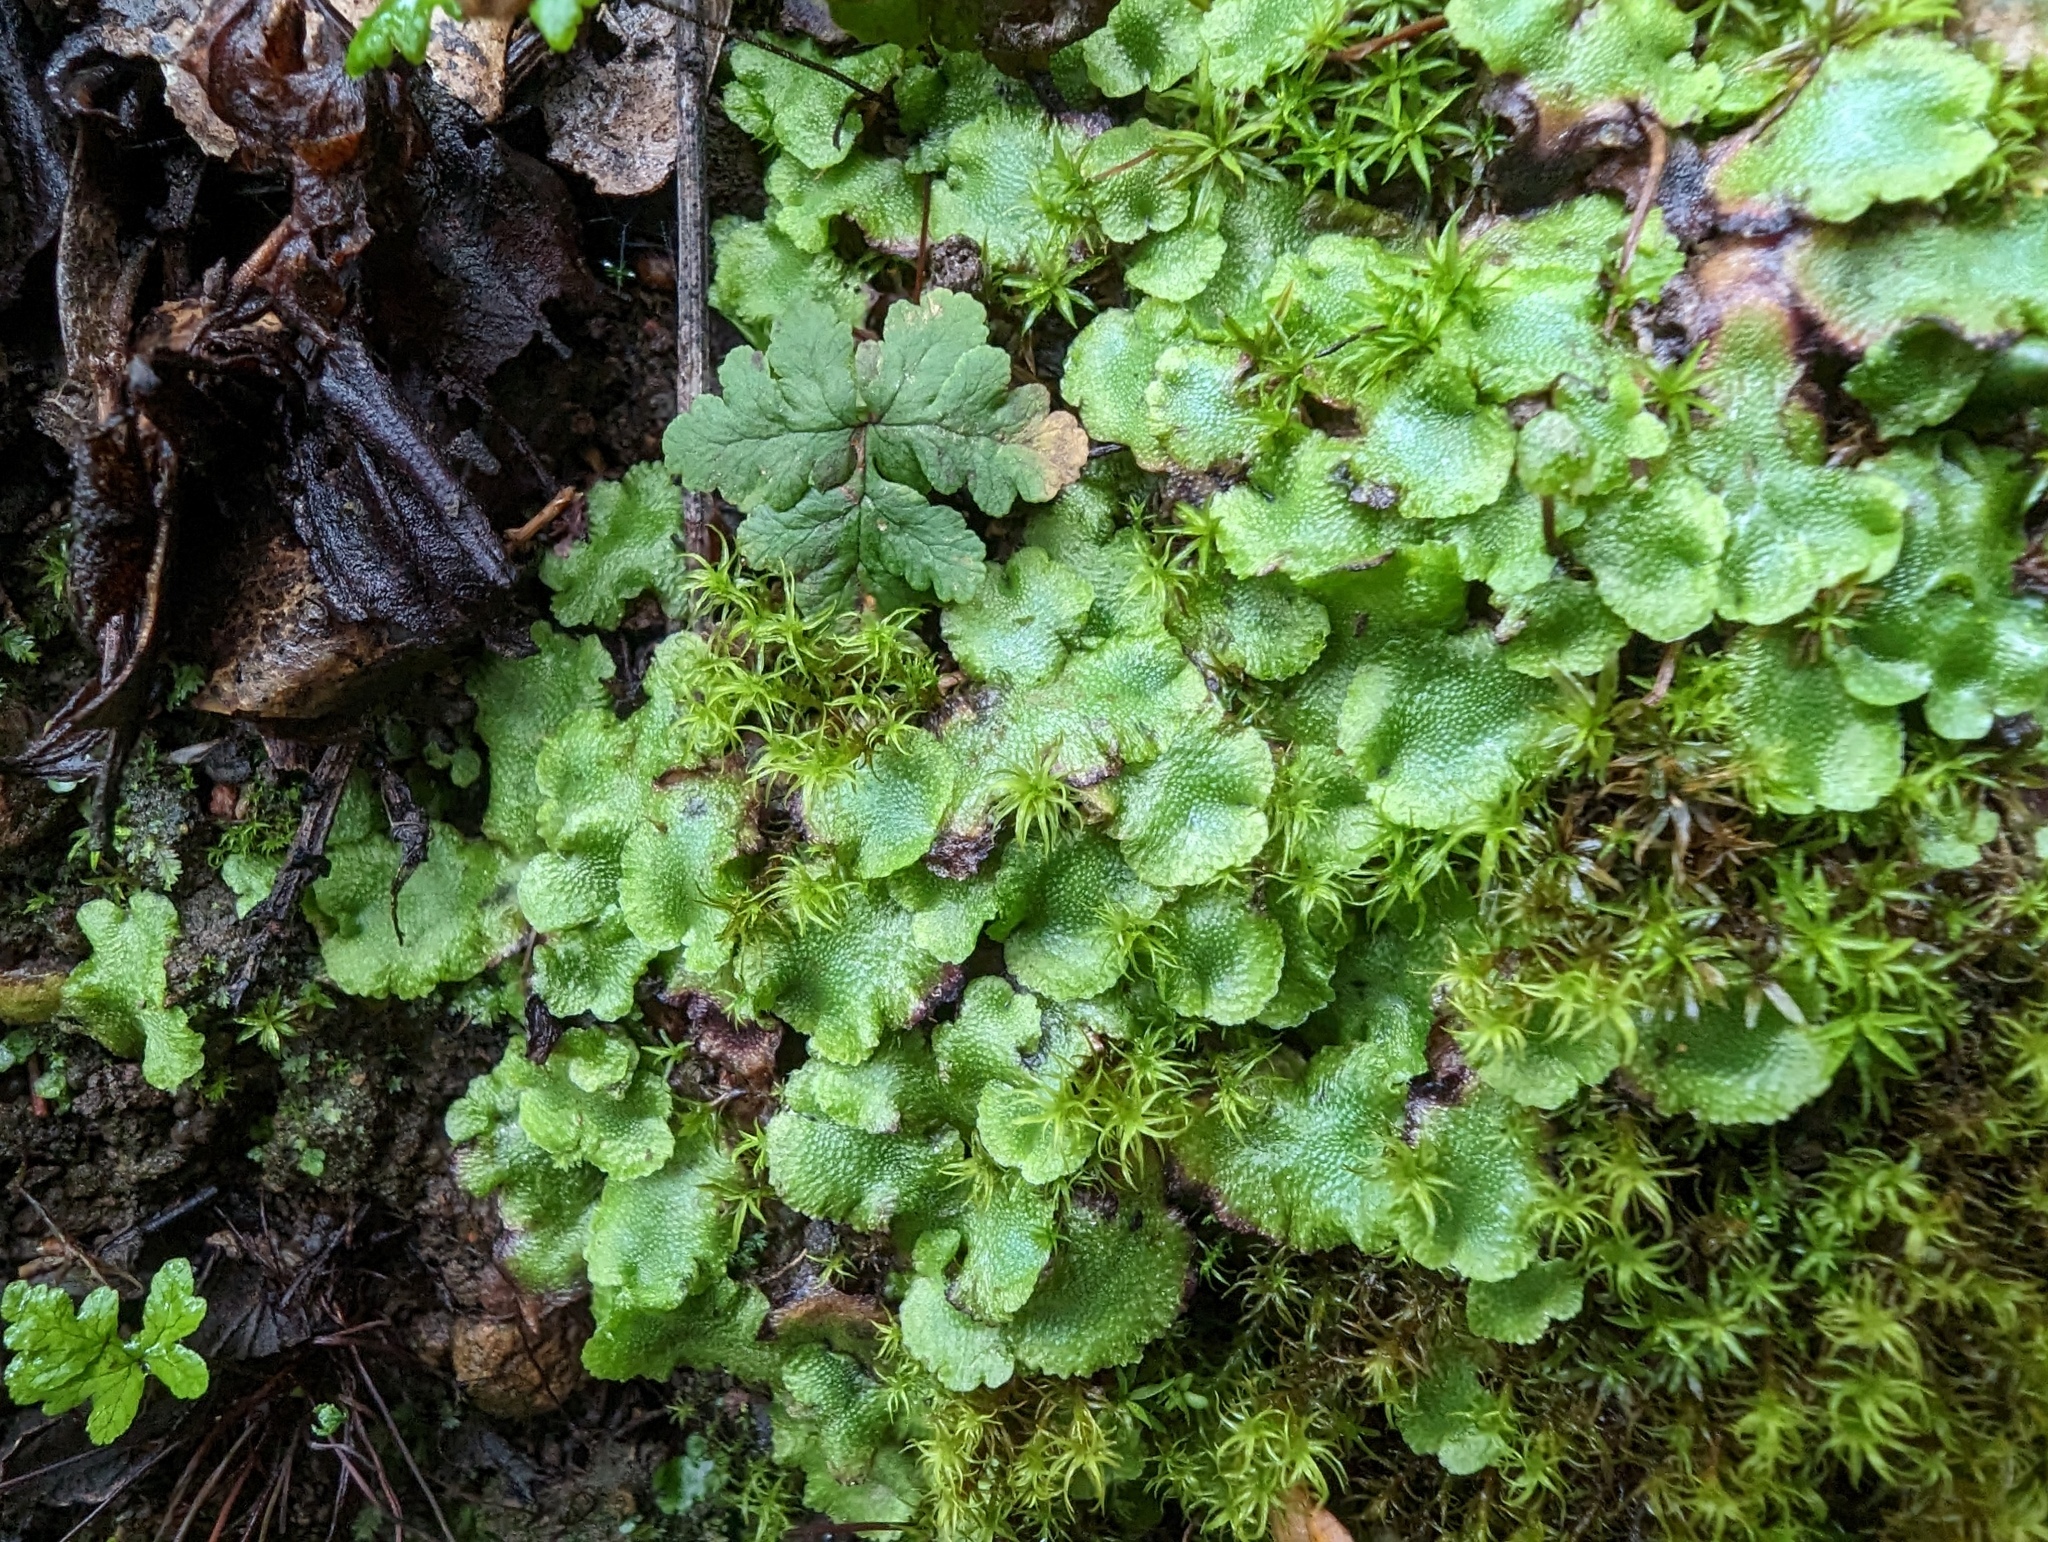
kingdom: Plantae
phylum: Marchantiophyta
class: Marchantiopsida
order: Lunulariales
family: Lunulariaceae
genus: Lunularia
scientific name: Lunularia cruciata
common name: Crescent-cup liverwort
